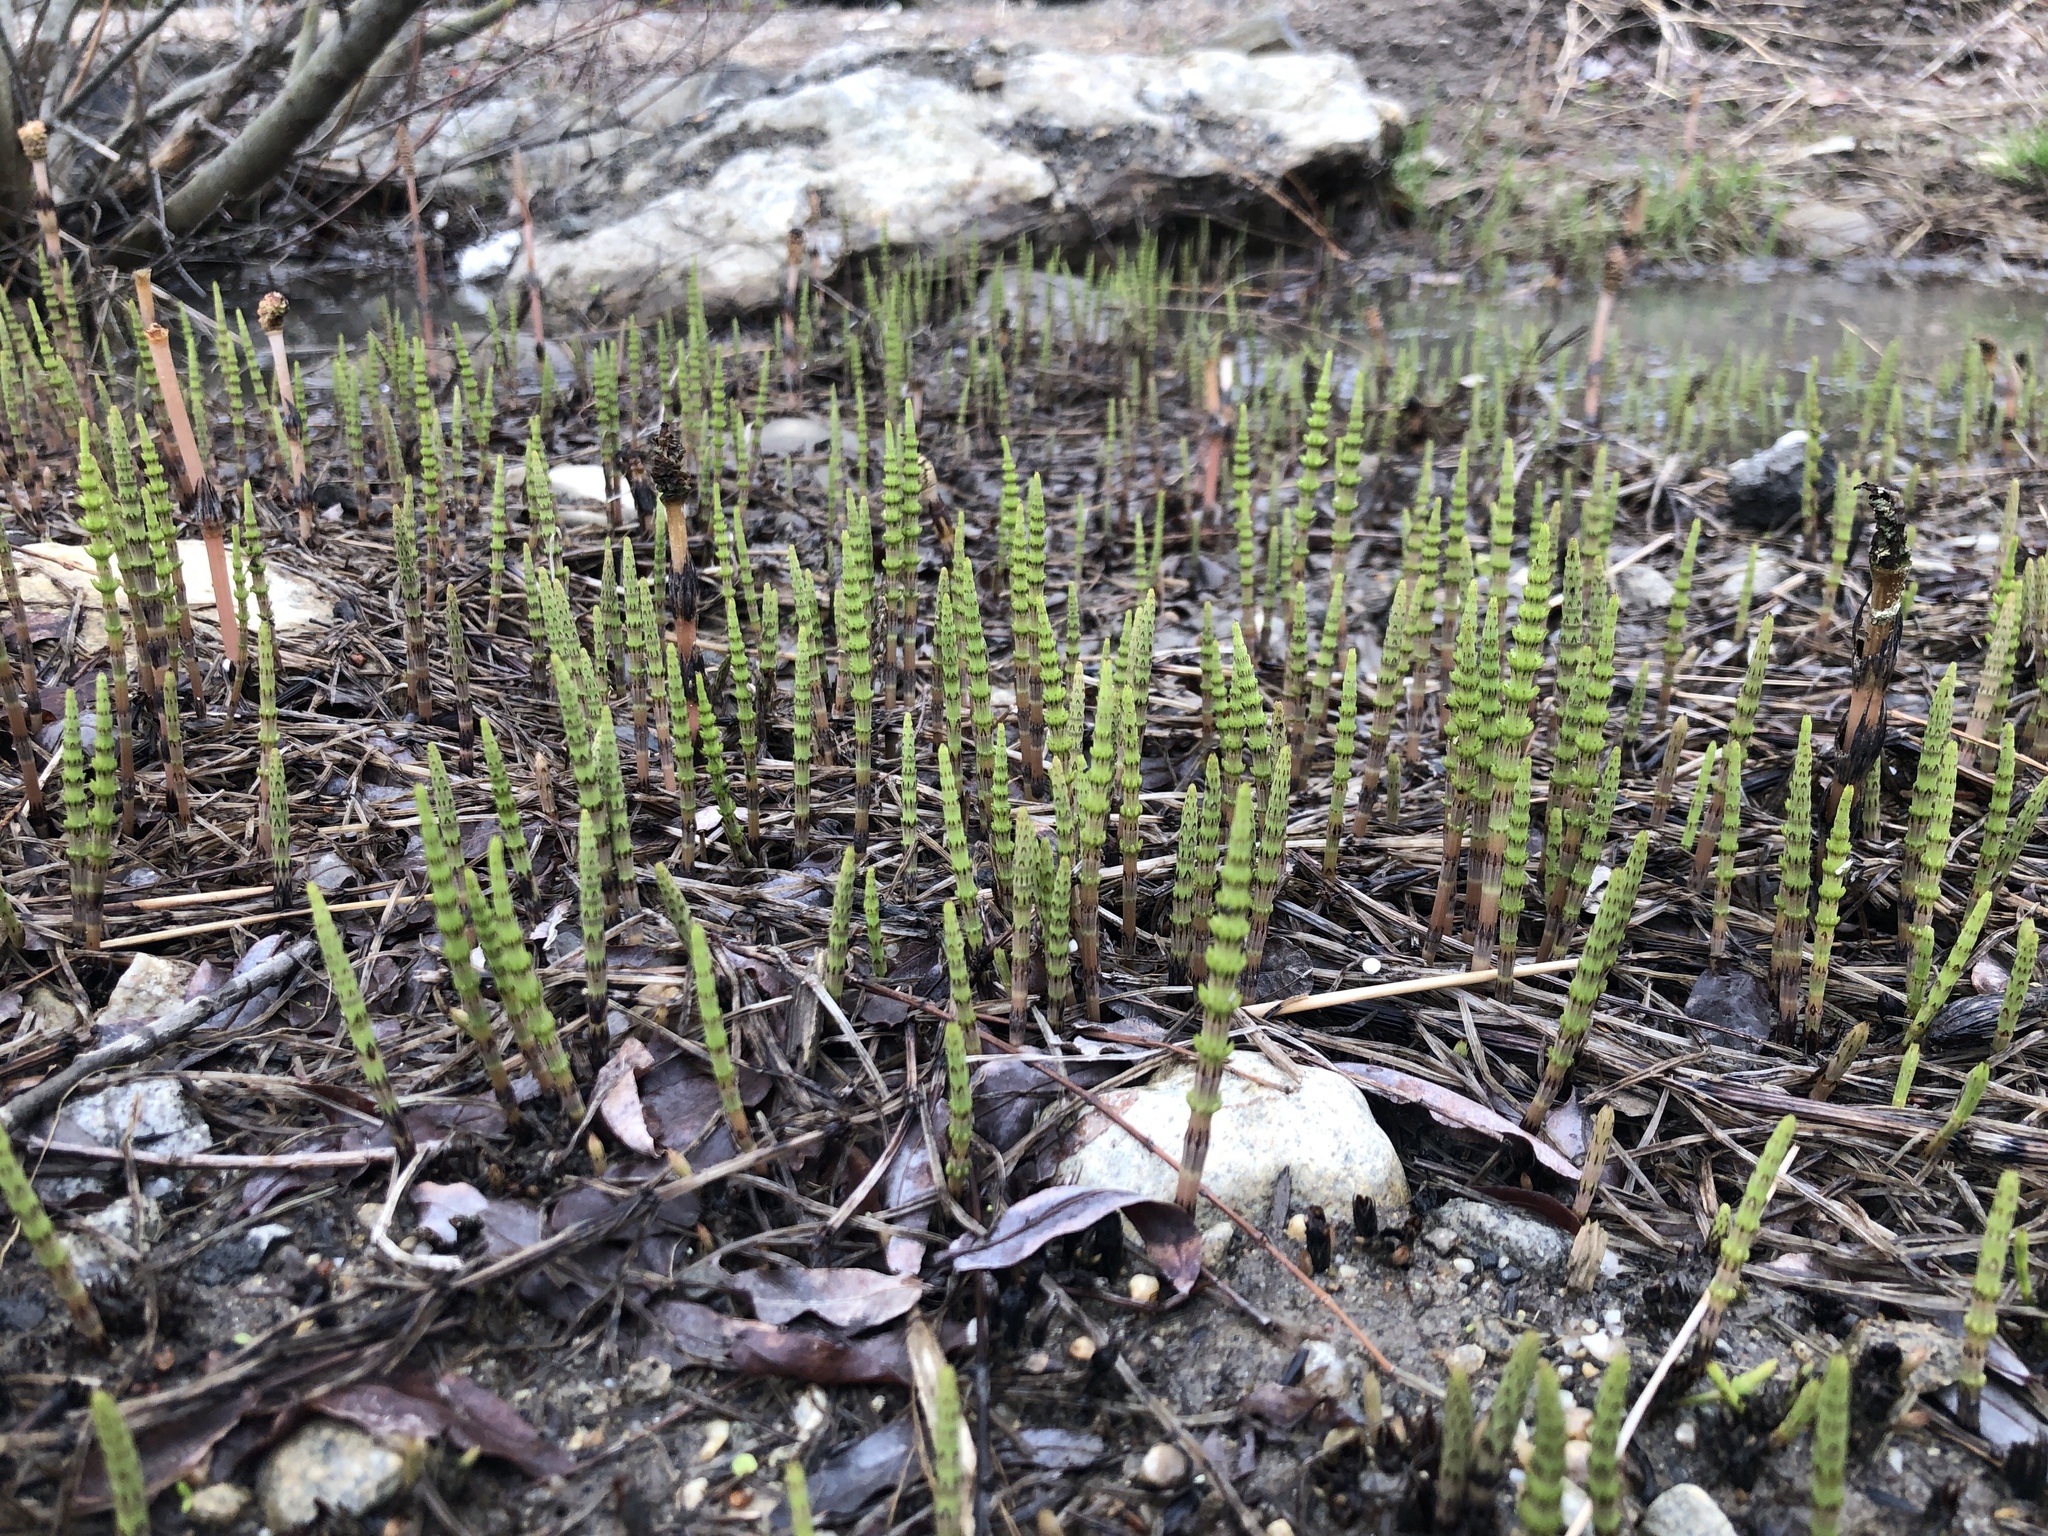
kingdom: Plantae
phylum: Tracheophyta
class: Polypodiopsida
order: Equisetales
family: Equisetaceae
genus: Equisetum
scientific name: Equisetum arvense
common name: Field horsetail
